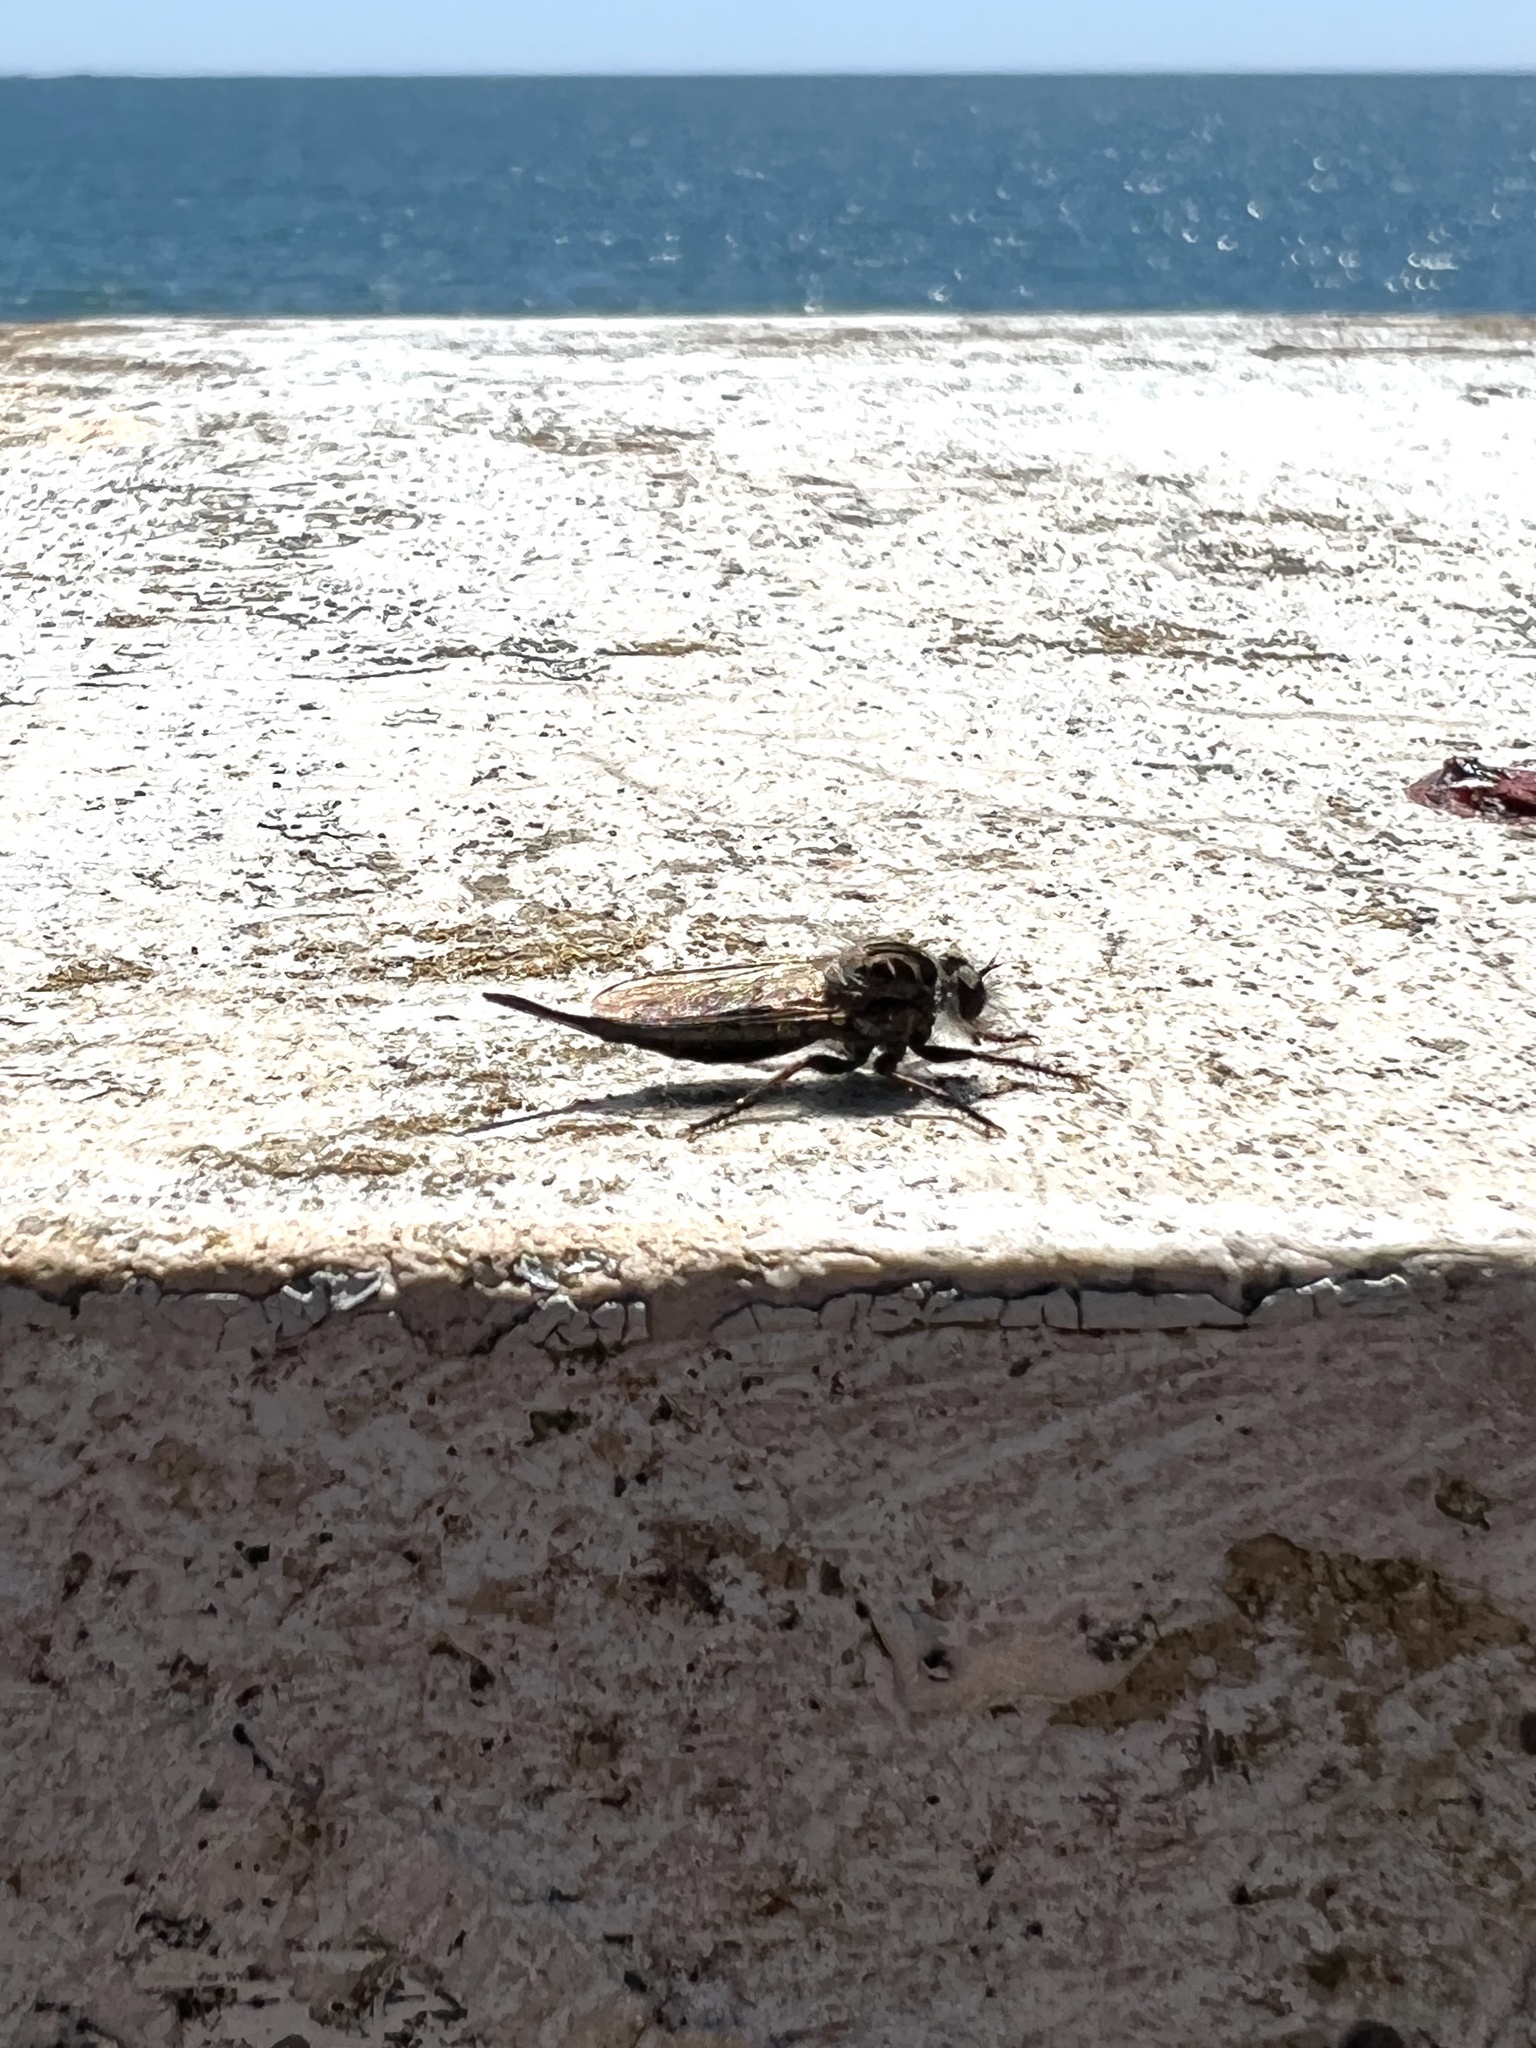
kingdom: Animalia
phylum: Arthropoda
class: Insecta
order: Diptera
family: Asilidae
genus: Efferia
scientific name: Efferia aestuans
